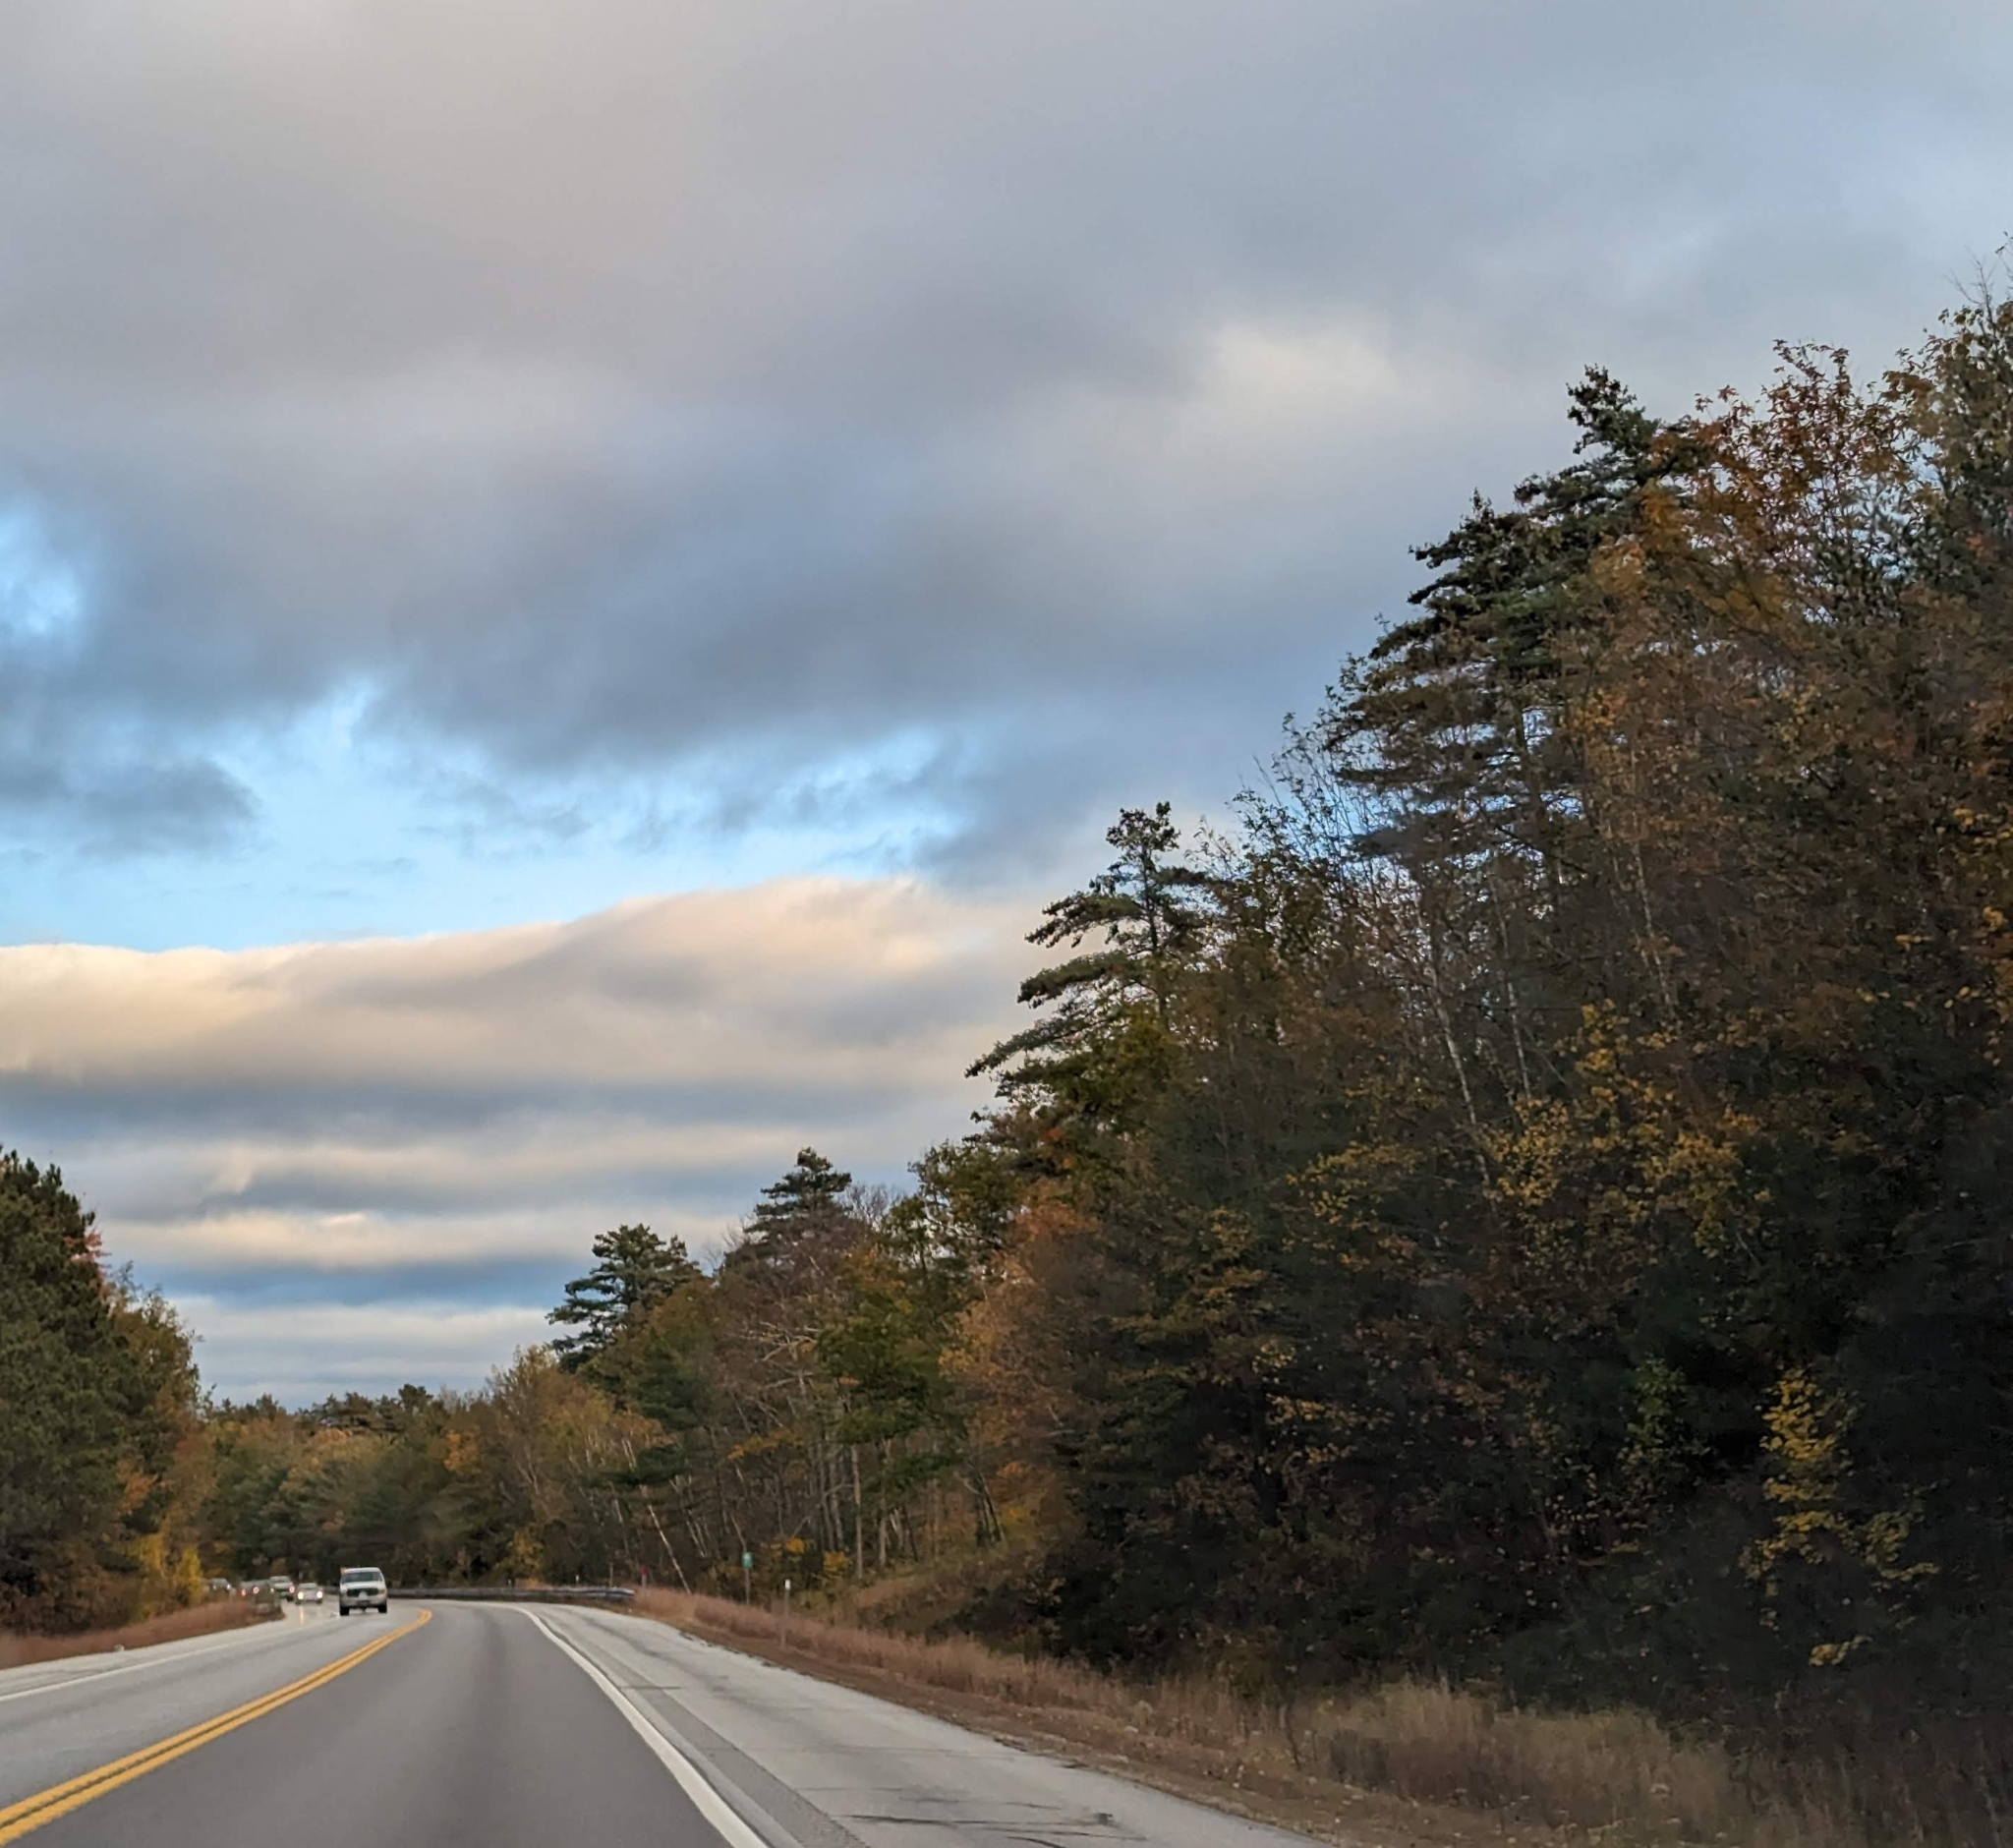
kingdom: Plantae
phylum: Tracheophyta
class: Pinopsida
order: Pinales
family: Pinaceae
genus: Pinus
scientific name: Pinus strobus
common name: Weymouth pine
